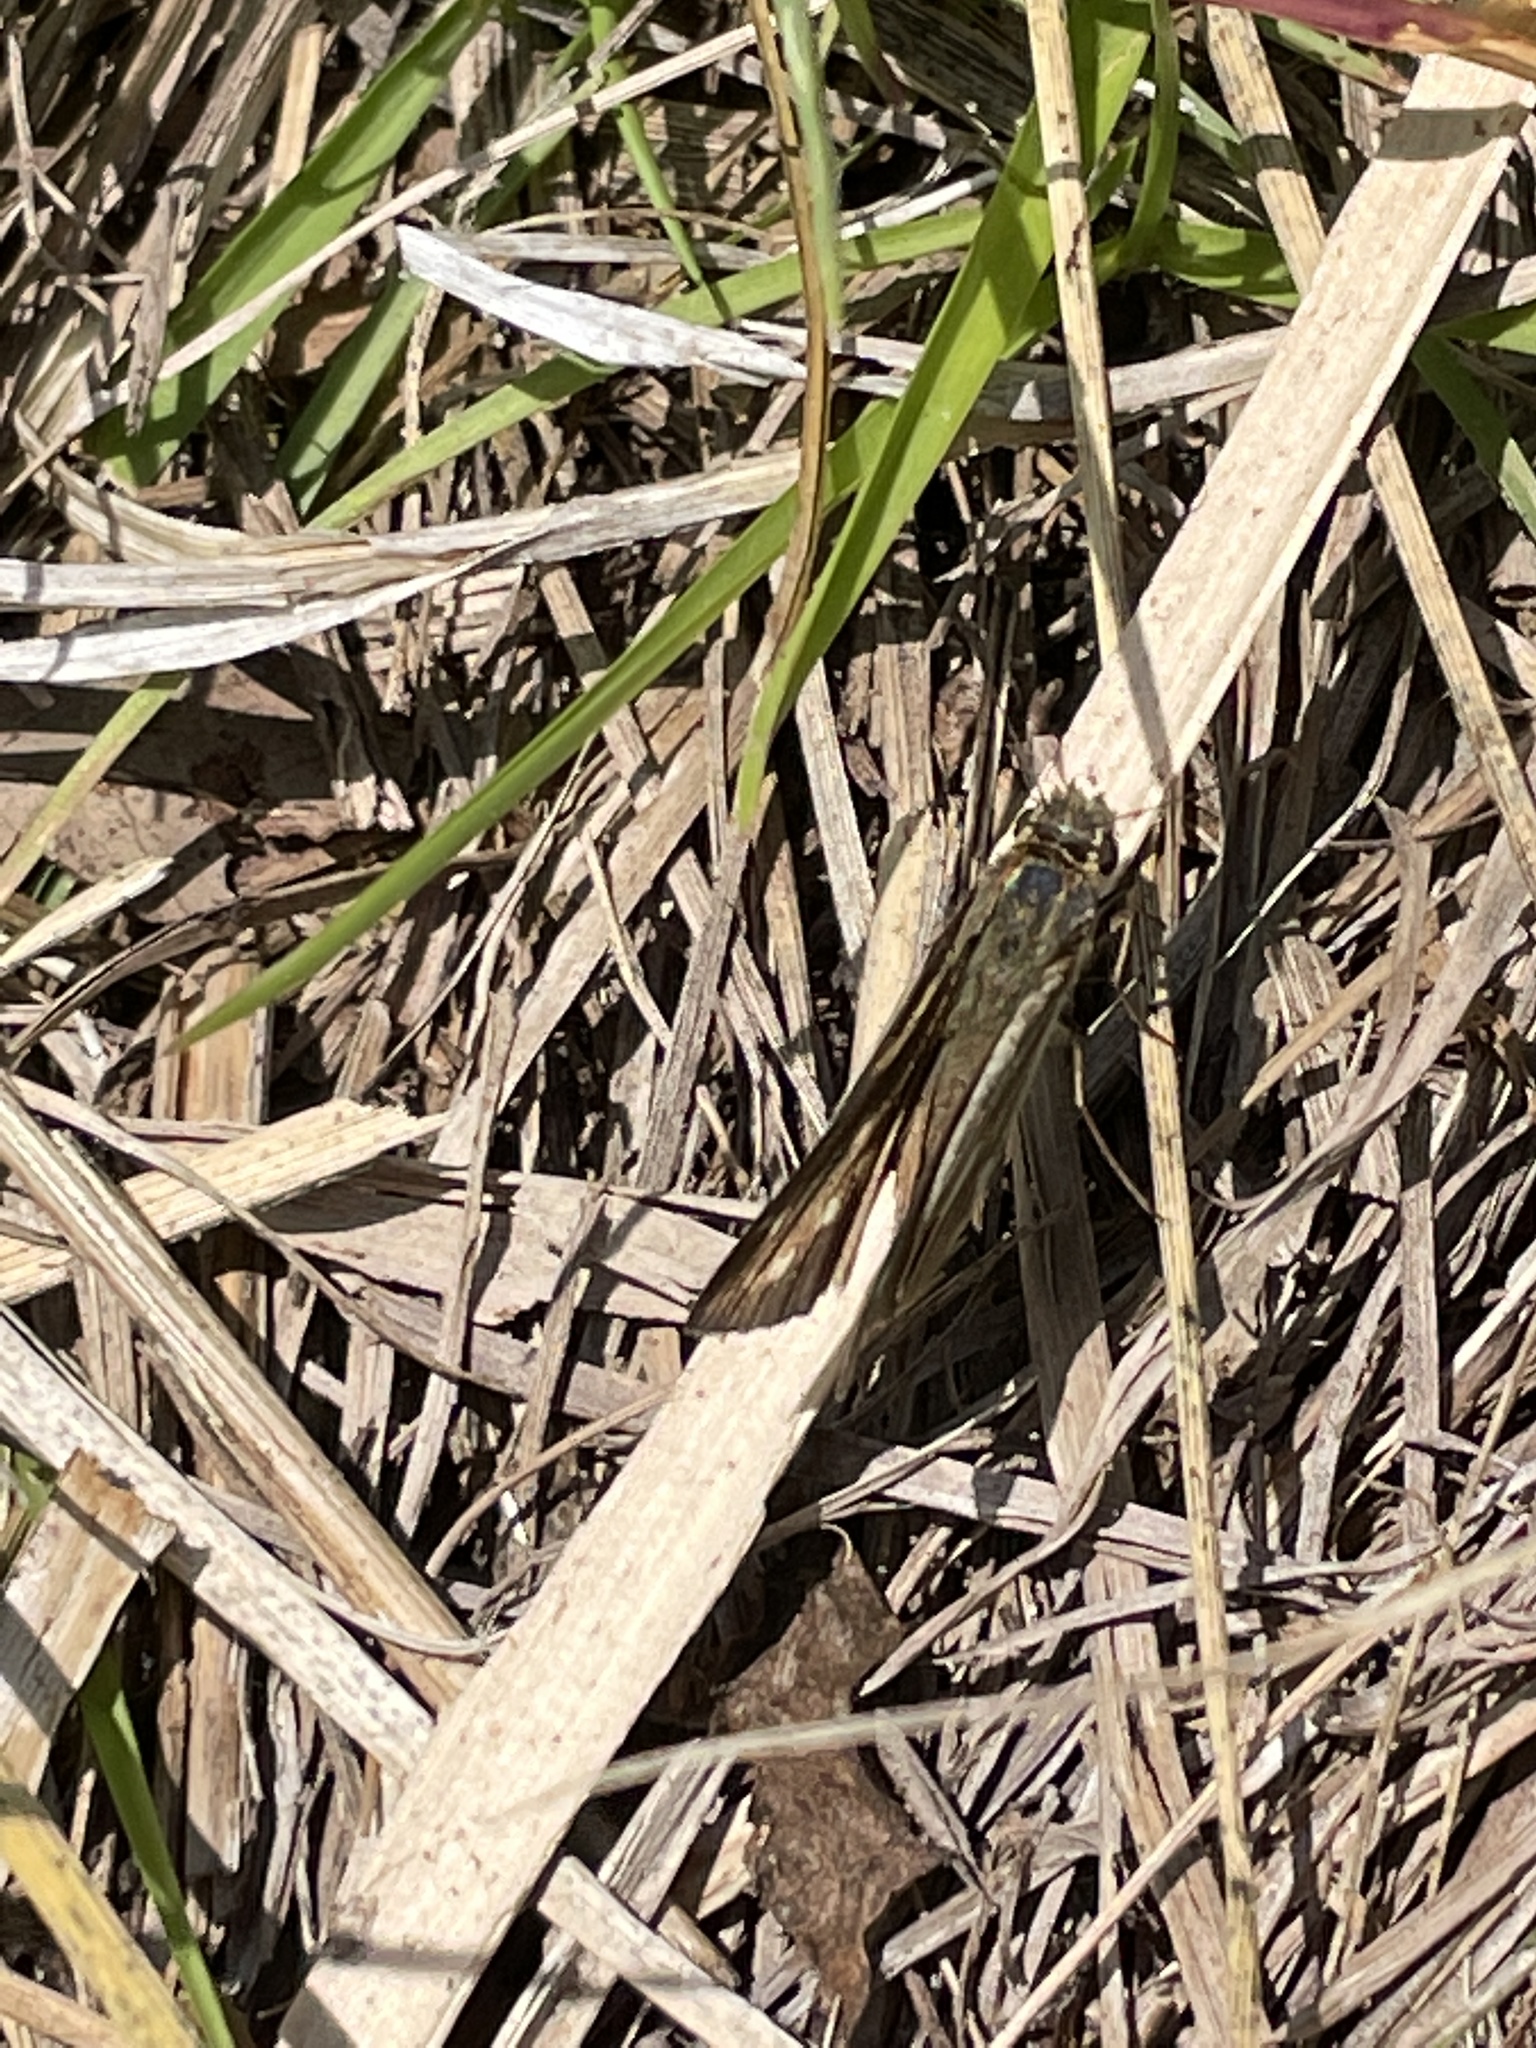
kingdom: Animalia
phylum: Arthropoda
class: Insecta
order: Lepidoptera
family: Hesperiidae
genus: Panoquina
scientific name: Panoquina panoquin
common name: Salt marsh skipper
